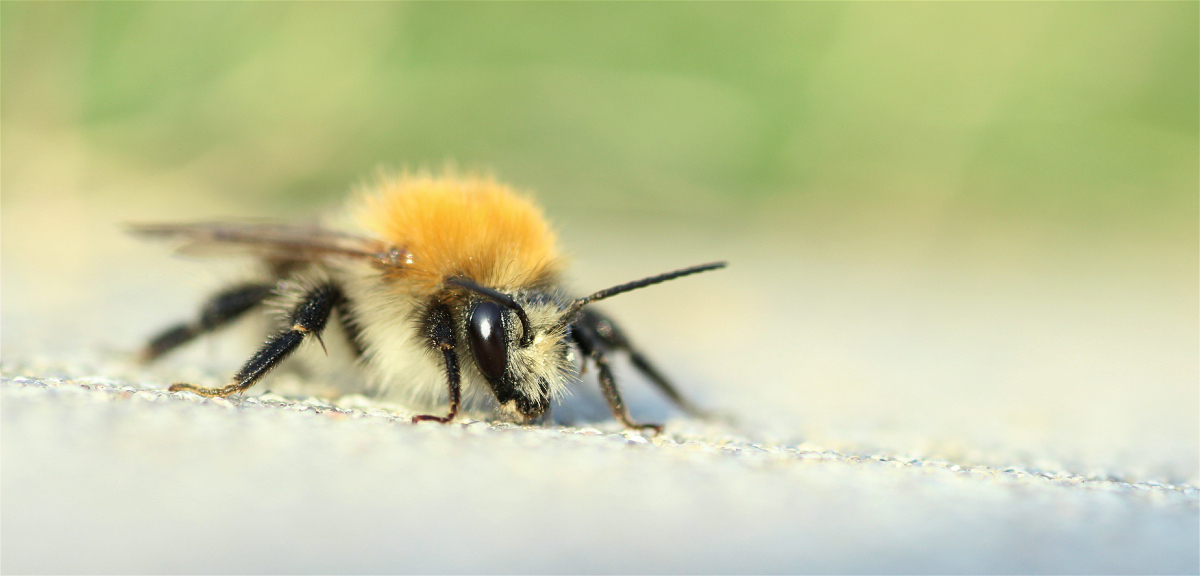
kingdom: Animalia
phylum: Arthropoda
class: Insecta
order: Hymenoptera
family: Apidae
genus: Bombus
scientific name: Bombus pascuorum
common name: Common carder bee
